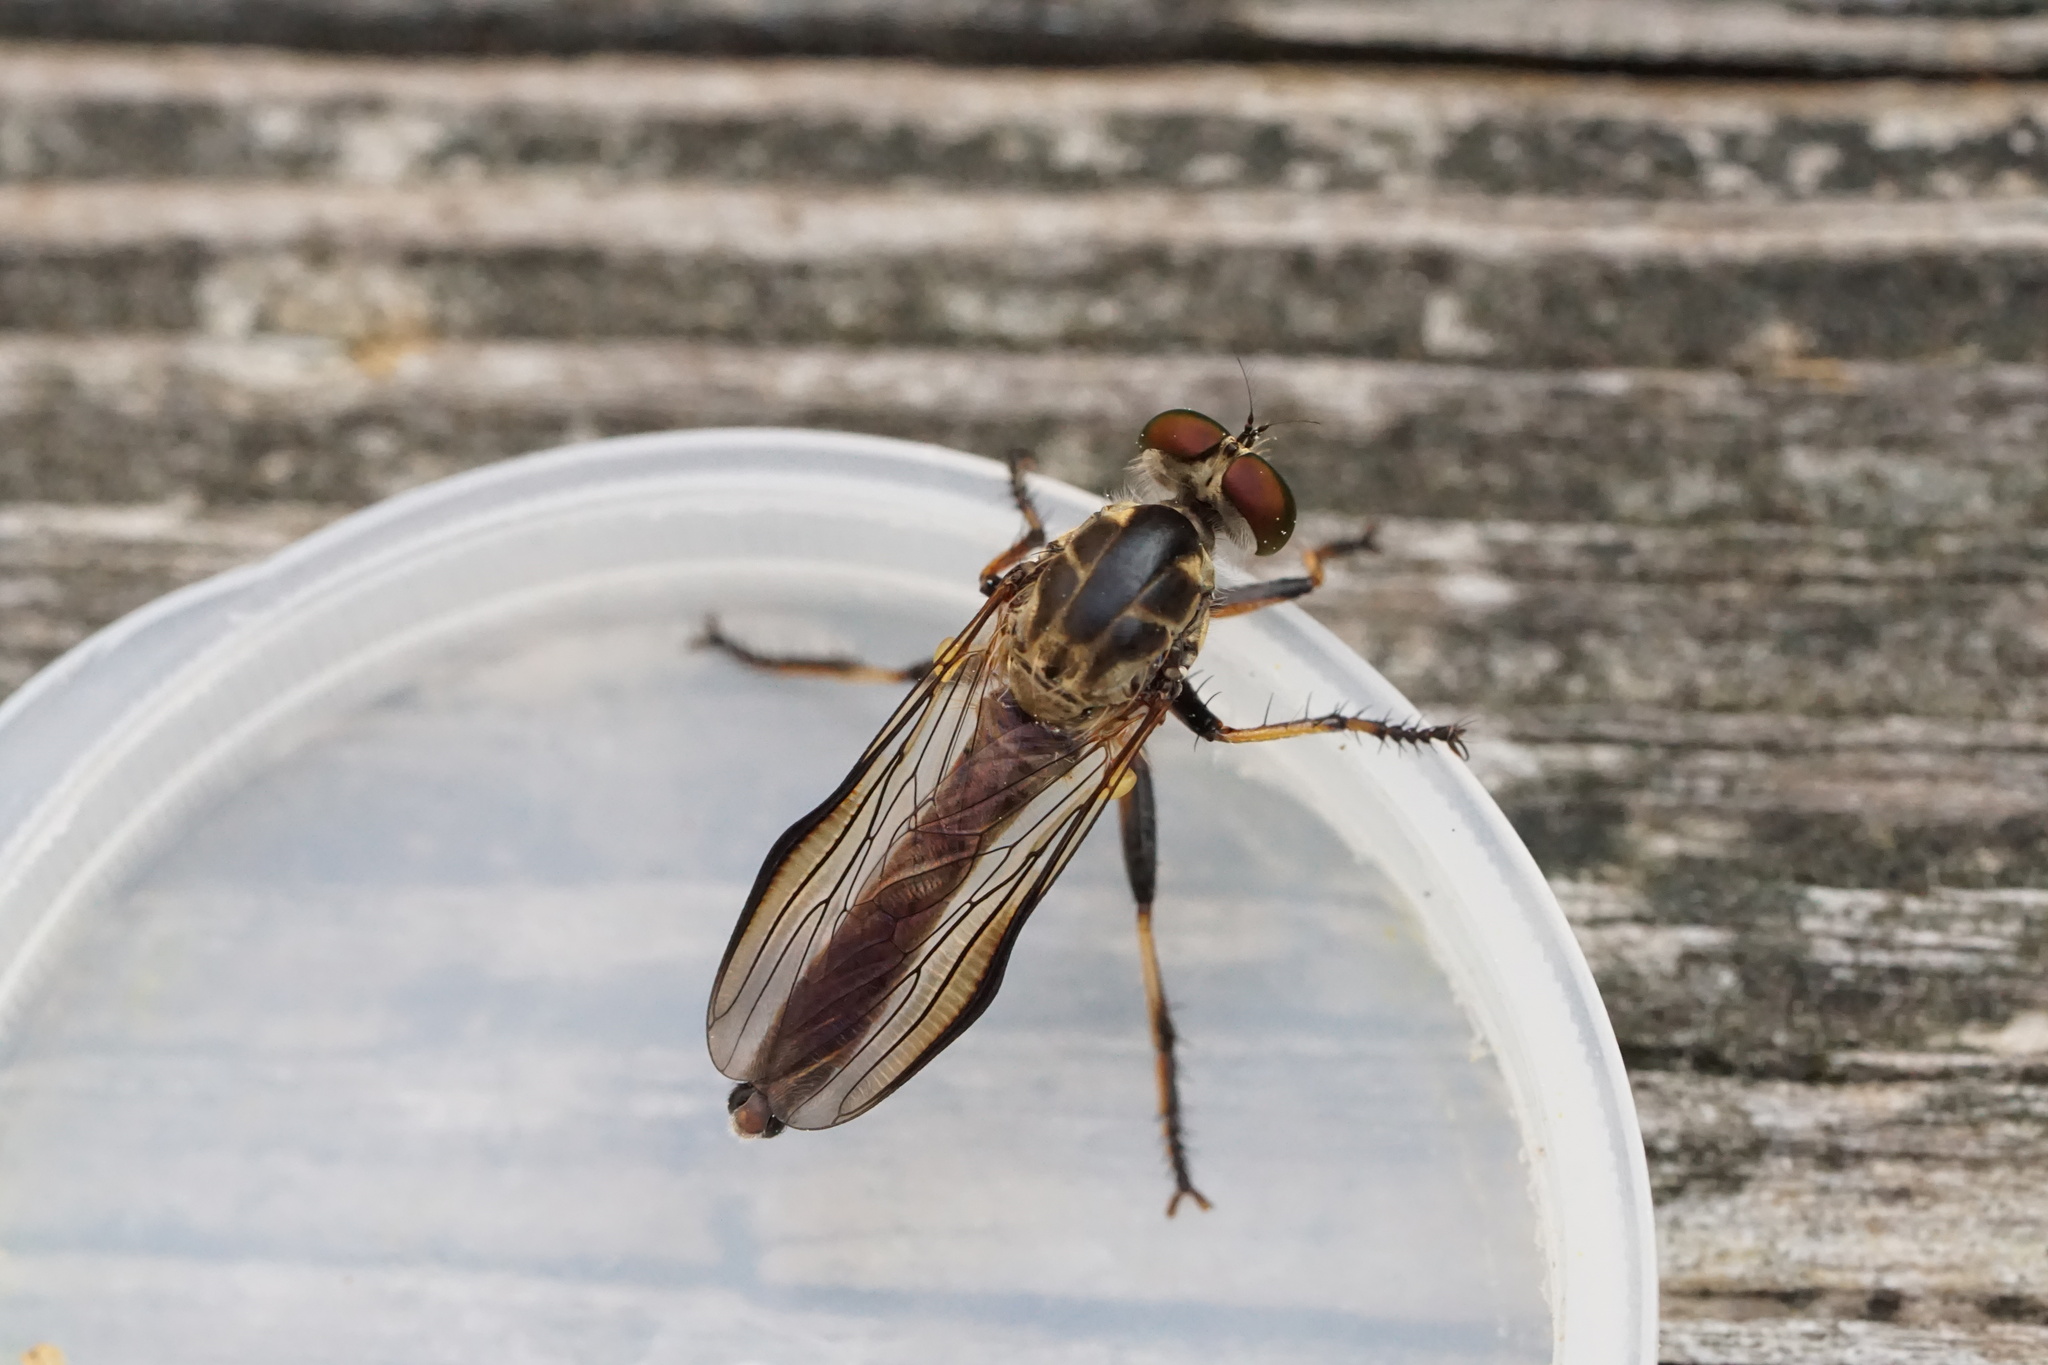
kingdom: Animalia
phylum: Arthropoda
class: Insecta
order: Diptera
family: Asilidae
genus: Ommatius
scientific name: Ommatius tibialis
